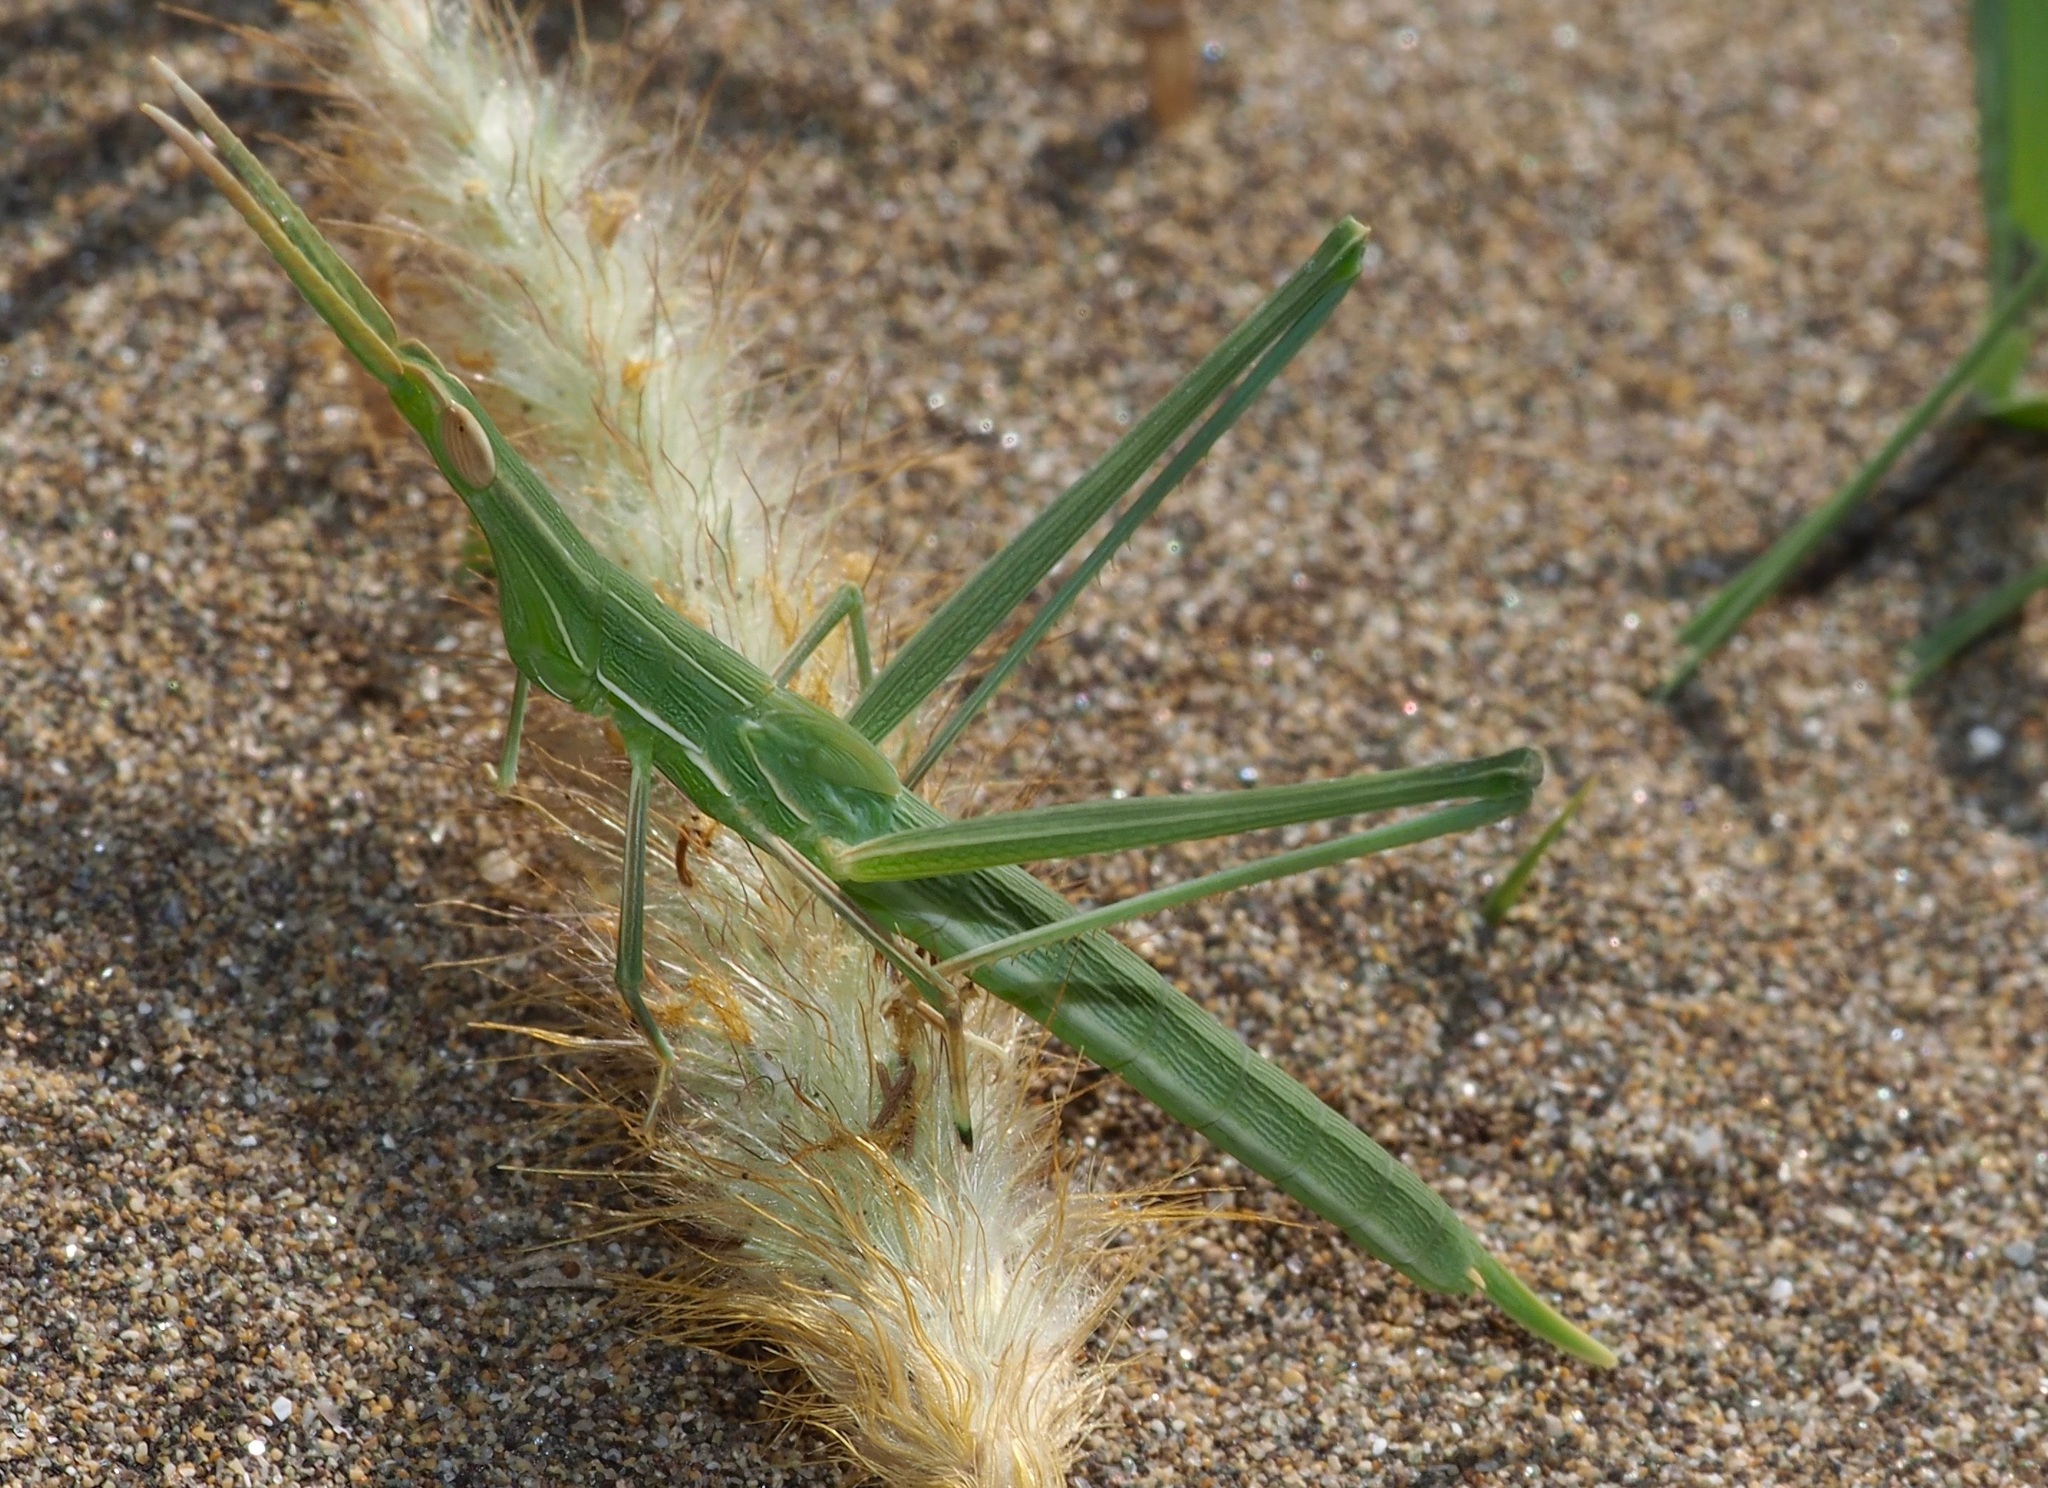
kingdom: Animalia
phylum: Arthropoda
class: Insecta
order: Orthoptera
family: Acrididae
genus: Truxalis
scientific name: Truxalis nasuta
